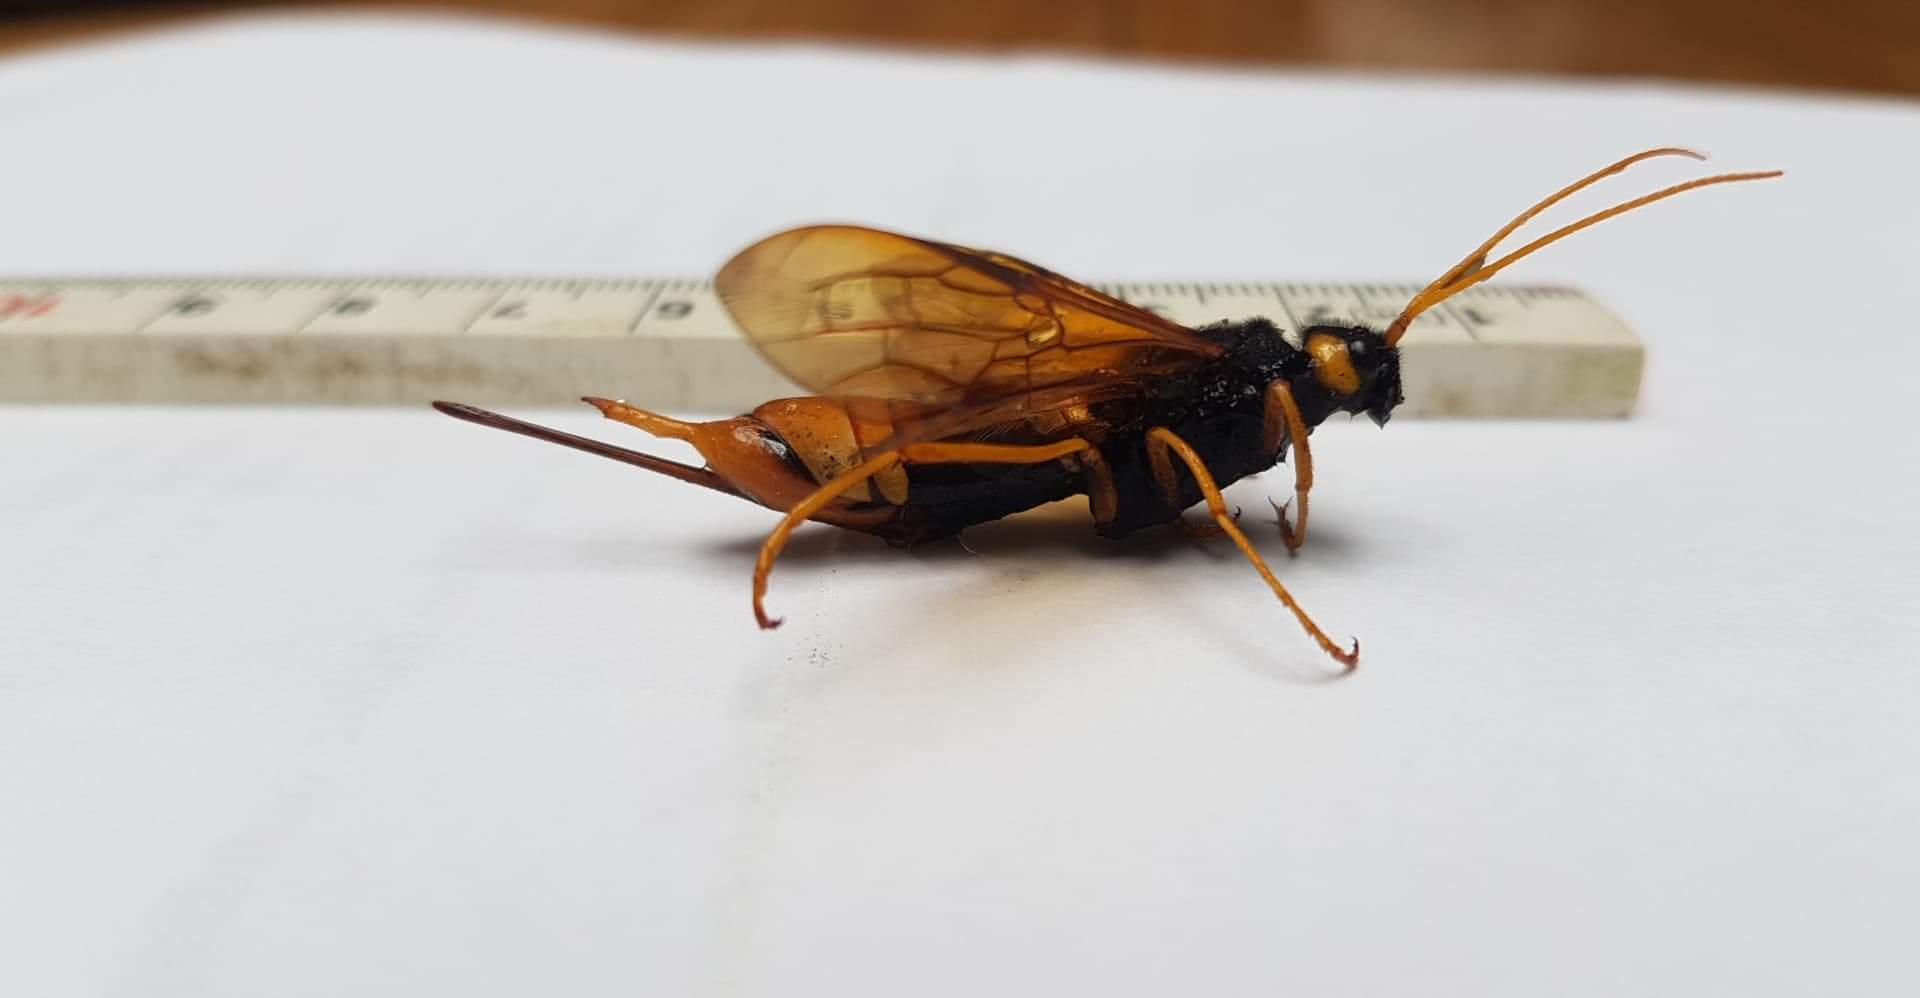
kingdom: Animalia
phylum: Arthropoda
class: Insecta
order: Hymenoptera
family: Siricidae
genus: Urocerus
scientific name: Urocerus gigas
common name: Giant woodwasp
